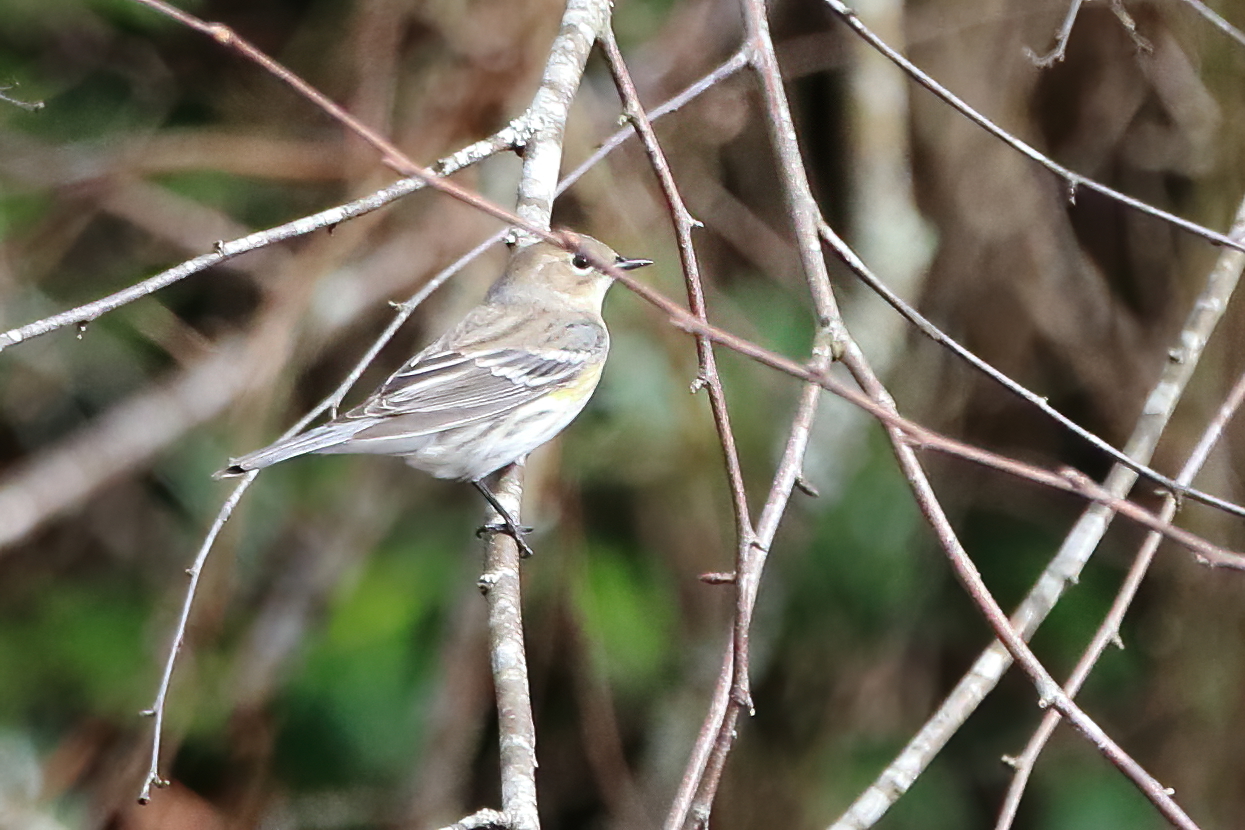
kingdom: Animalia
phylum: Chordata
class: Aves
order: Passeriformes
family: Parulidae
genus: Setophaga
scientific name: Setophaga coronata
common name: Myrtle warbler
